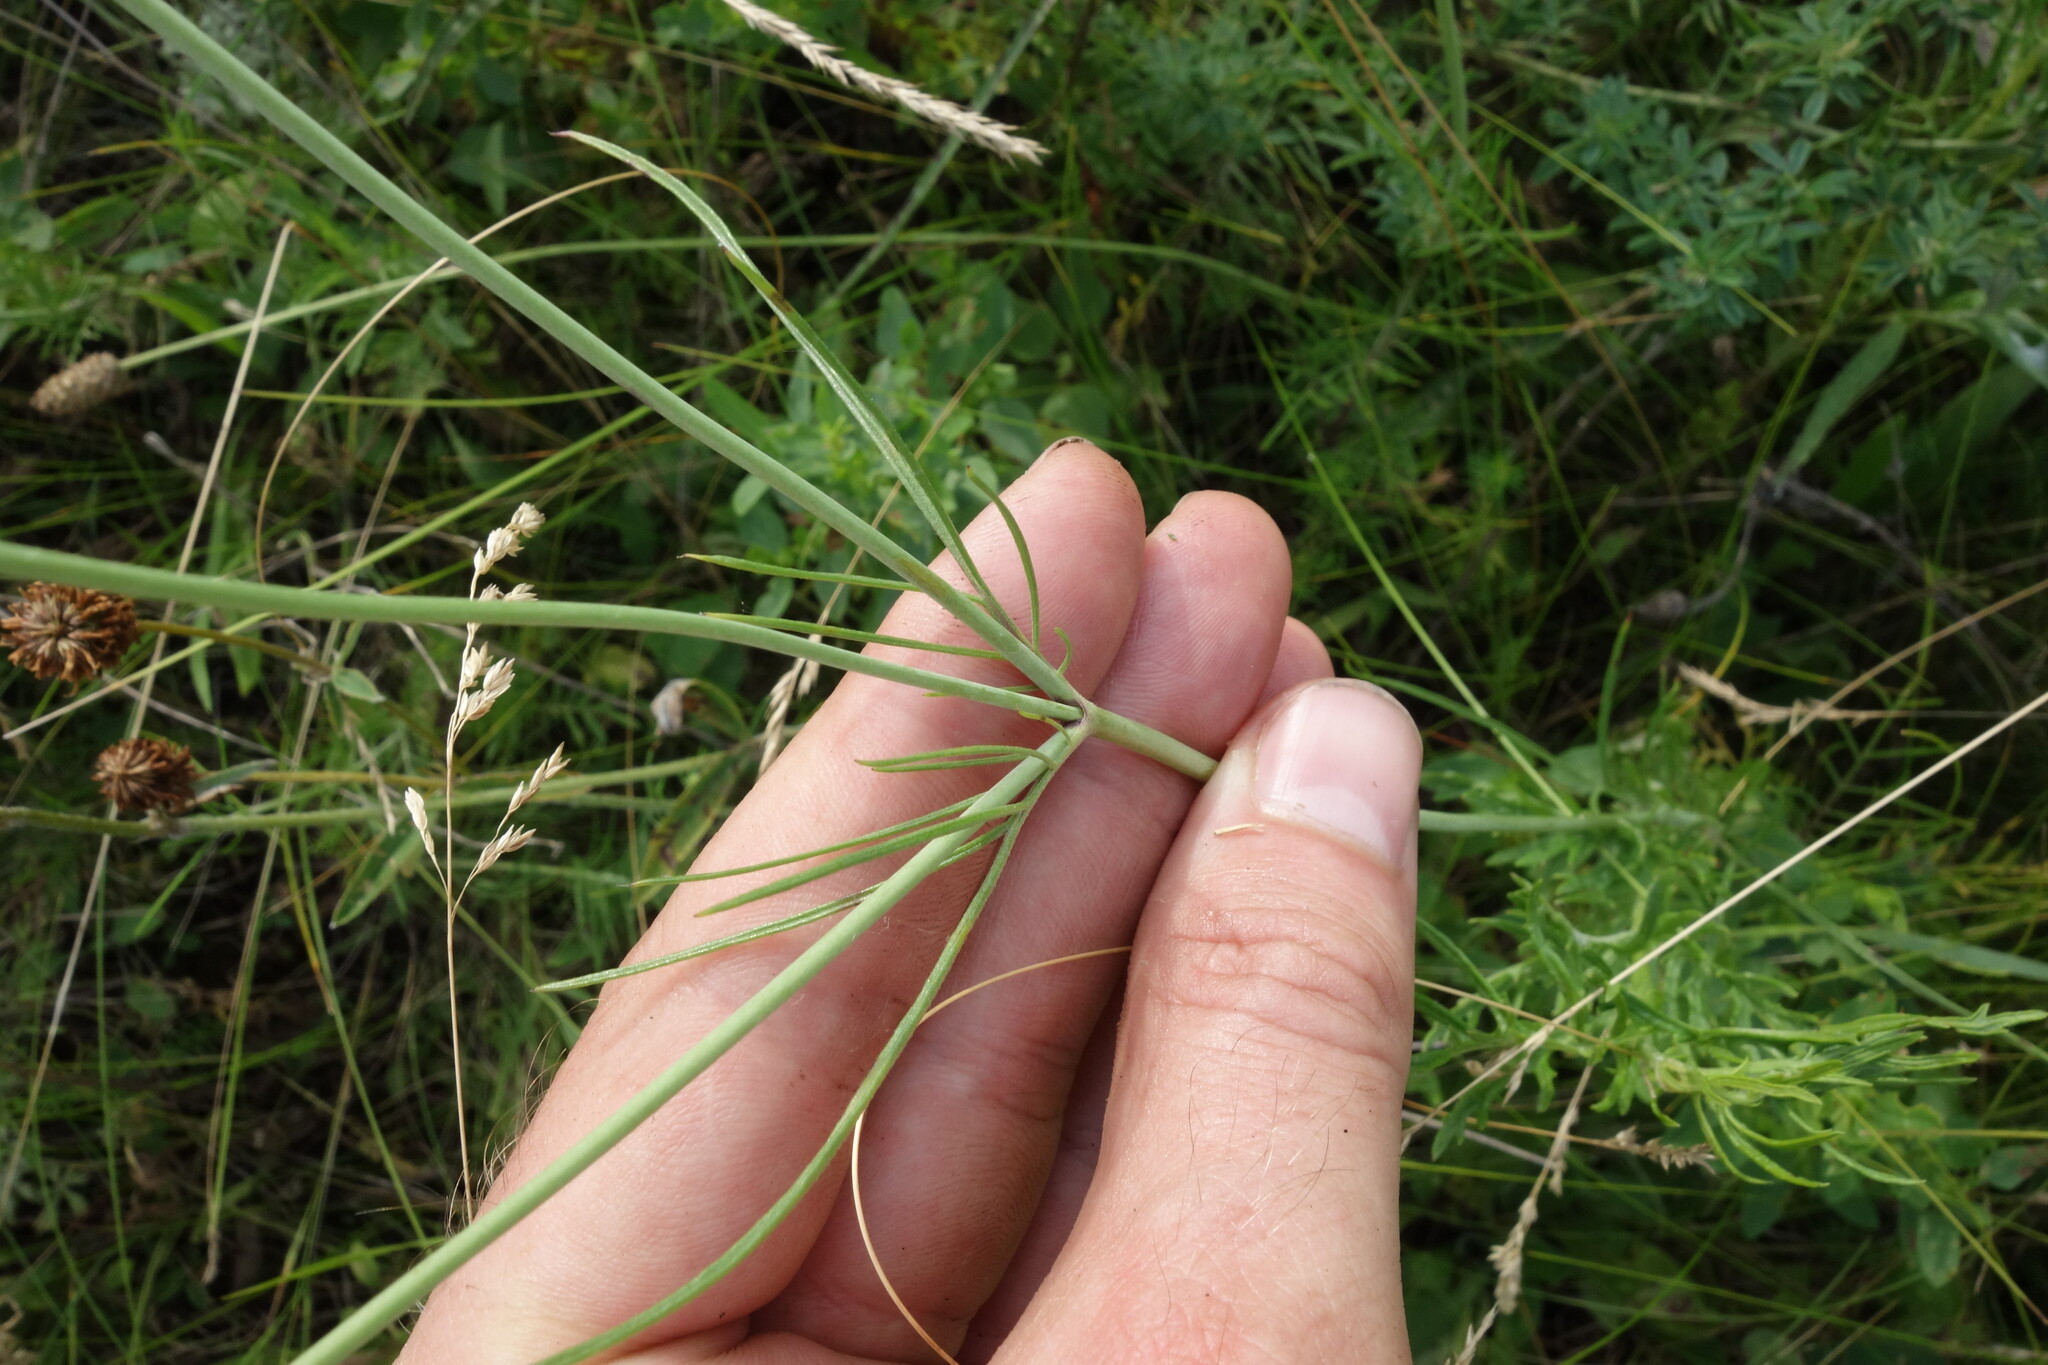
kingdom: Plantae
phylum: Tracheophyta
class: Magnoliopsida
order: Dipsacales
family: Caprifoliaceae
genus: Scabiosa
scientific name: Scabiosa ochroleuca
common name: Cream pincushions
